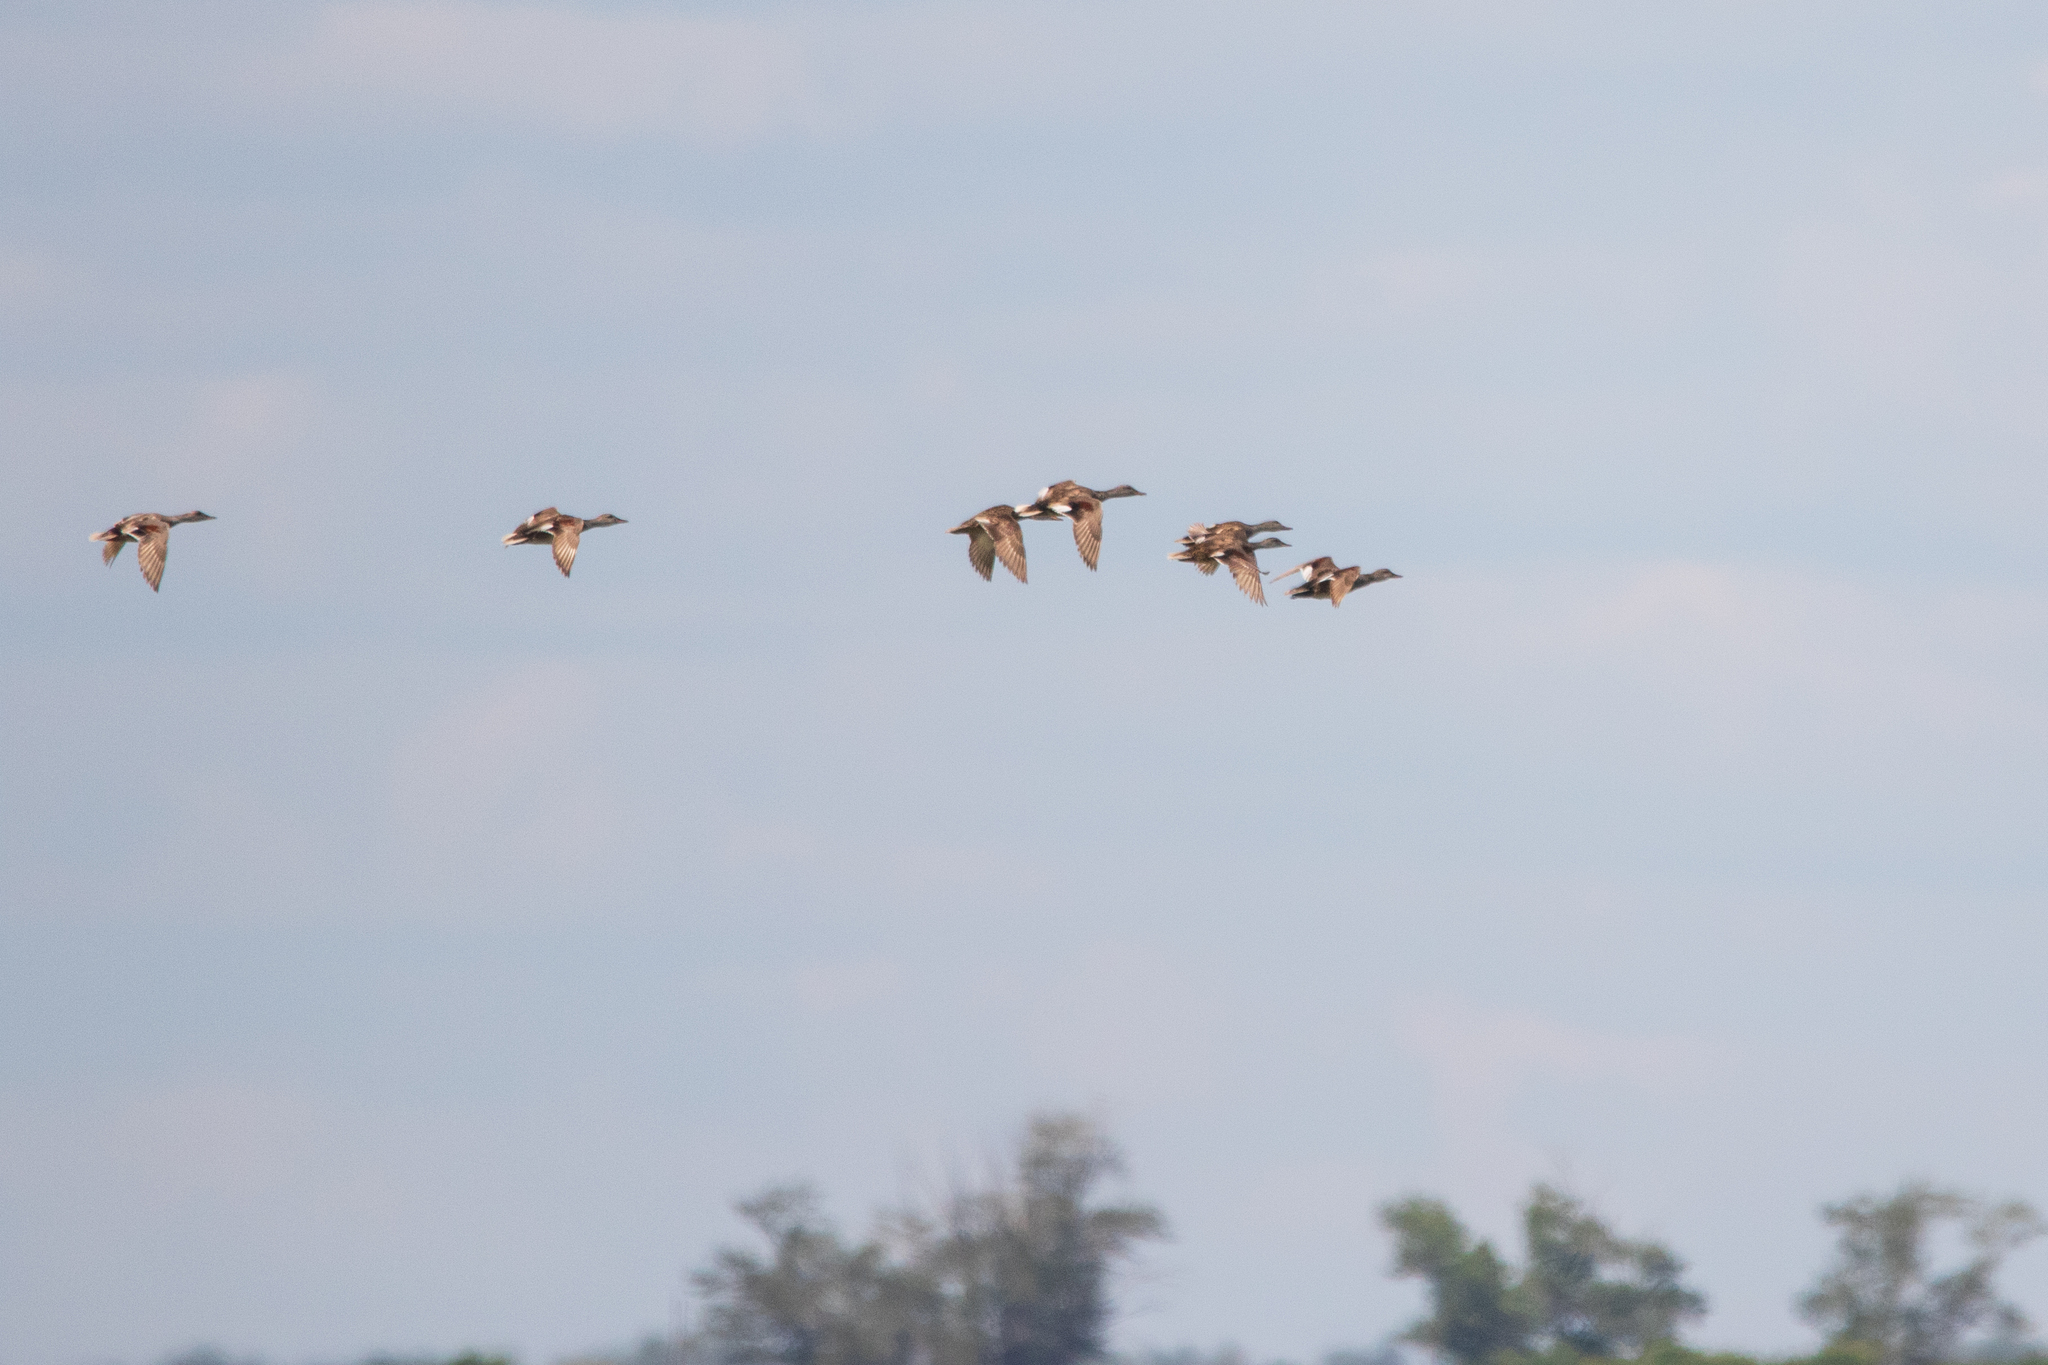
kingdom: Animalia
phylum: Chordata
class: Aves
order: Anseriformes
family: Anatidae
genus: Mareca
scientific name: Mareca strepera
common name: Gadwall
